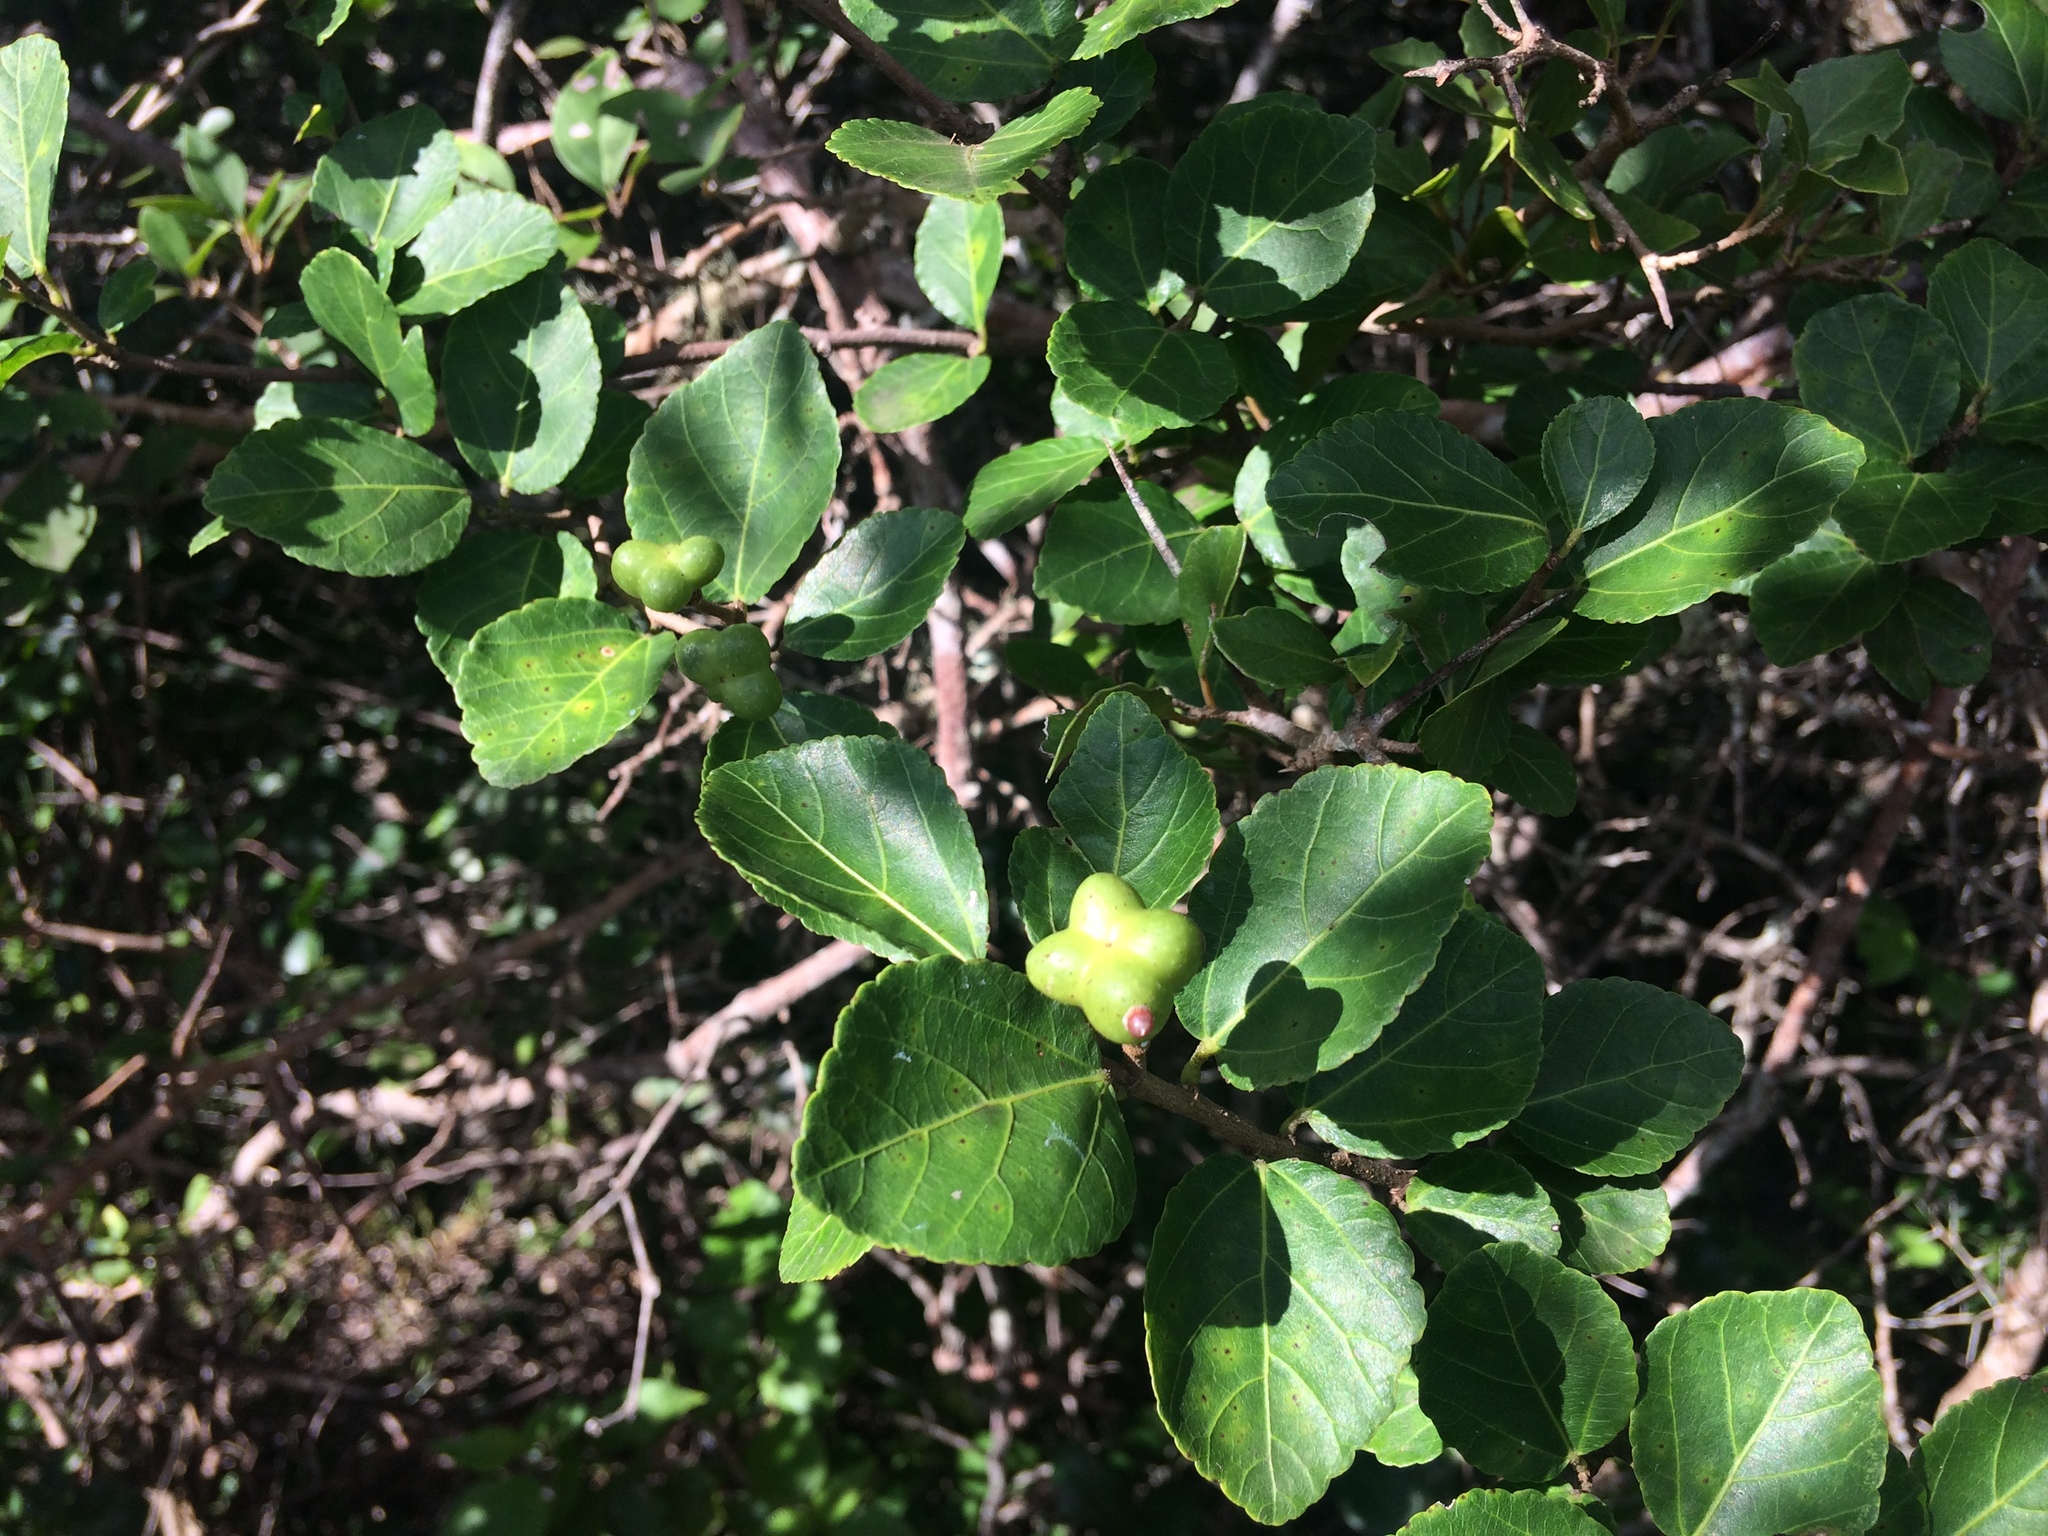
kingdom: Plantae
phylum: Tracheophyta
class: Magnoliopsida
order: Malvales
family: Malvaceae
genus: Grewia
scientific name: Grewia occidentalis
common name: Crossberry
